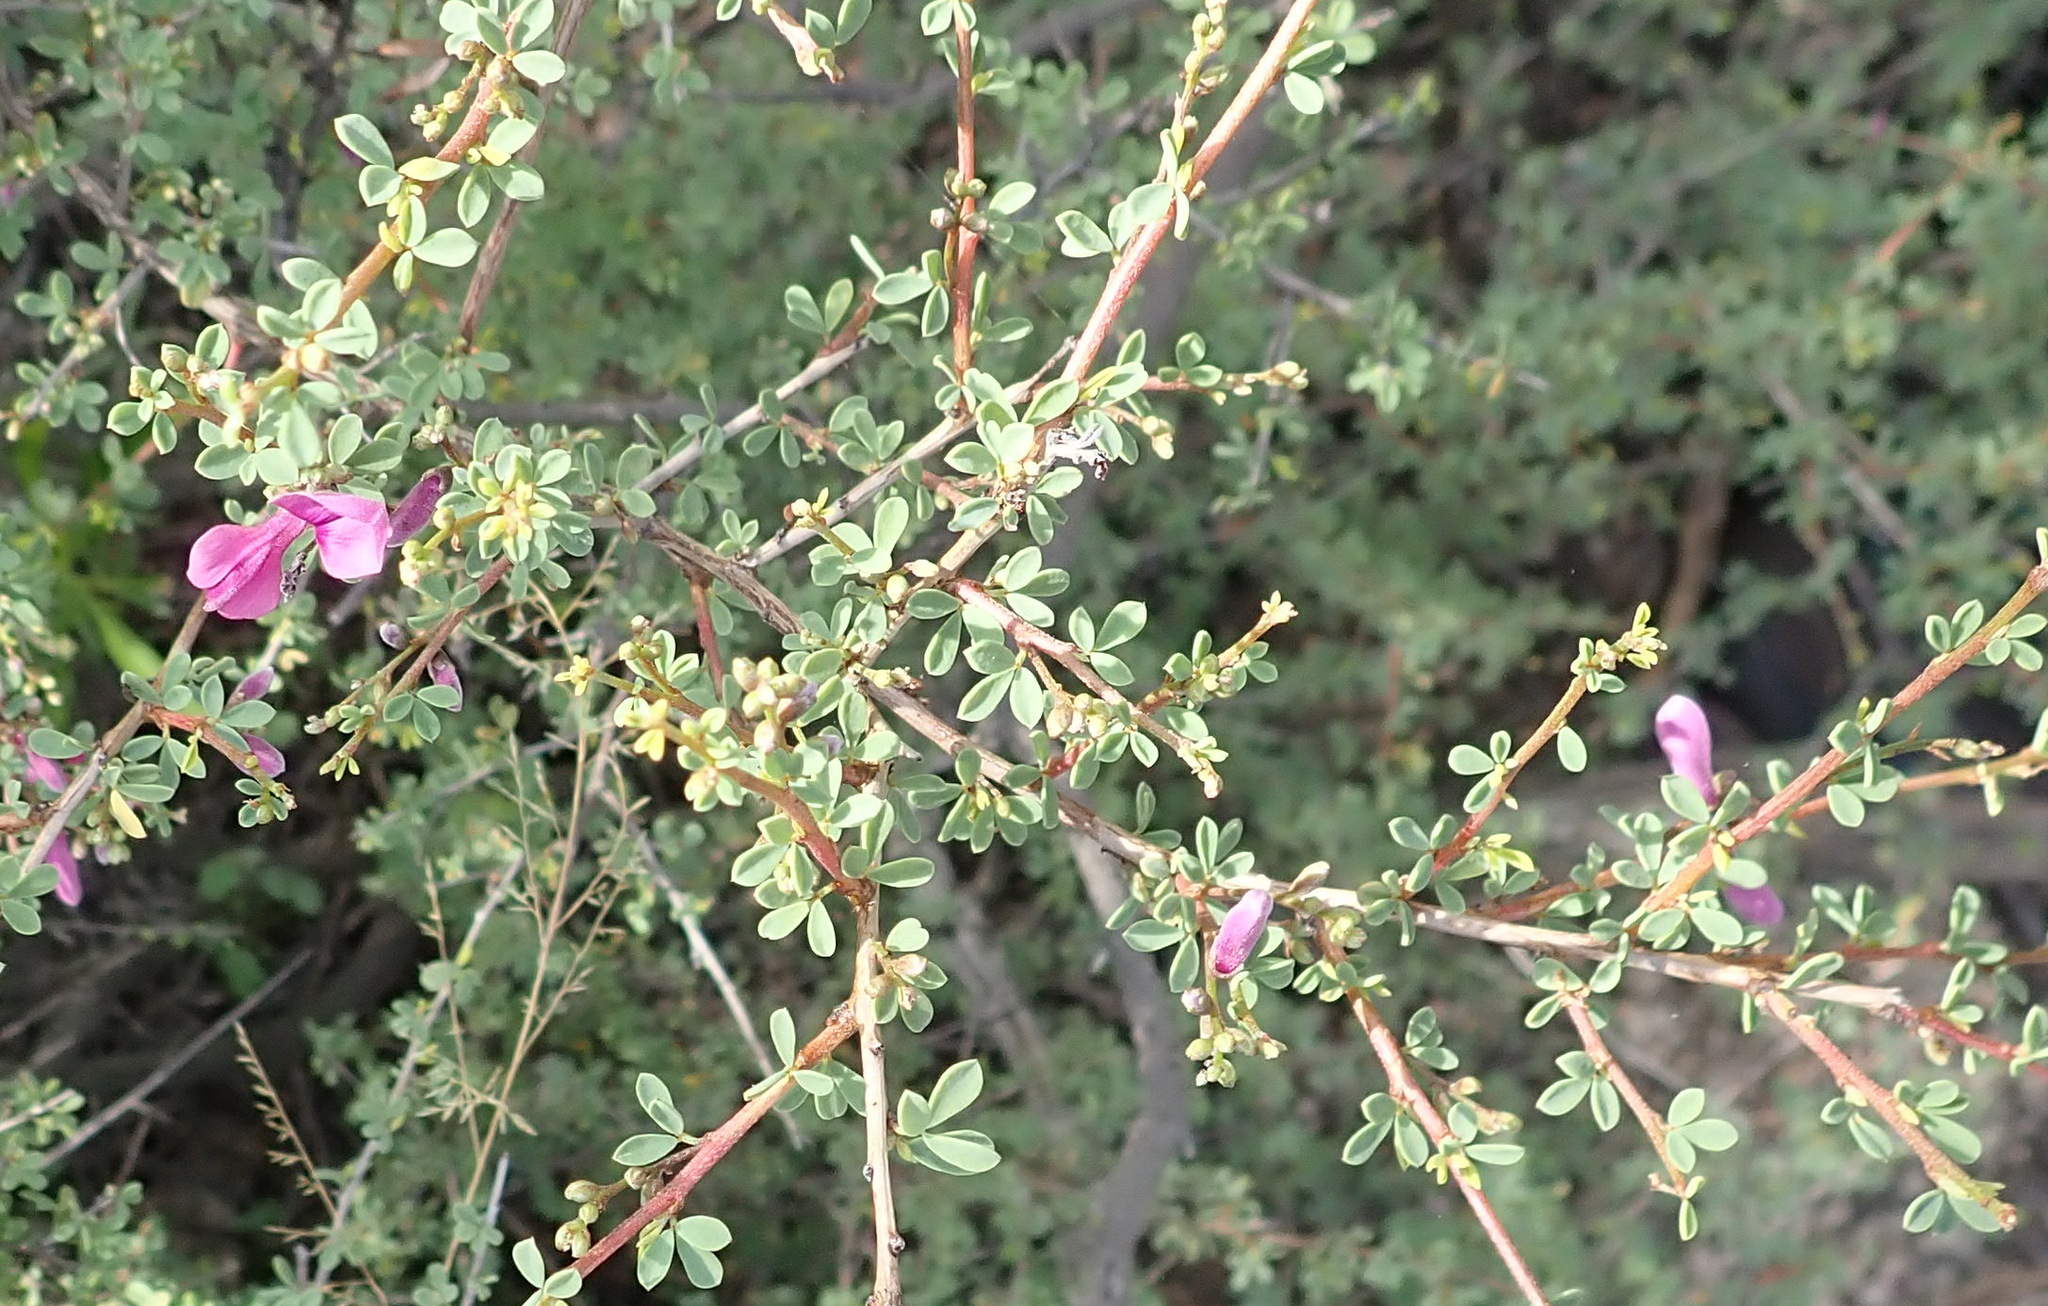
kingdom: Plantae
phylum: Tracheophyta
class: Magnoliopsida
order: Fabales
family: Fabaceae
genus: Indigofera
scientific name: Indigofera denudata
